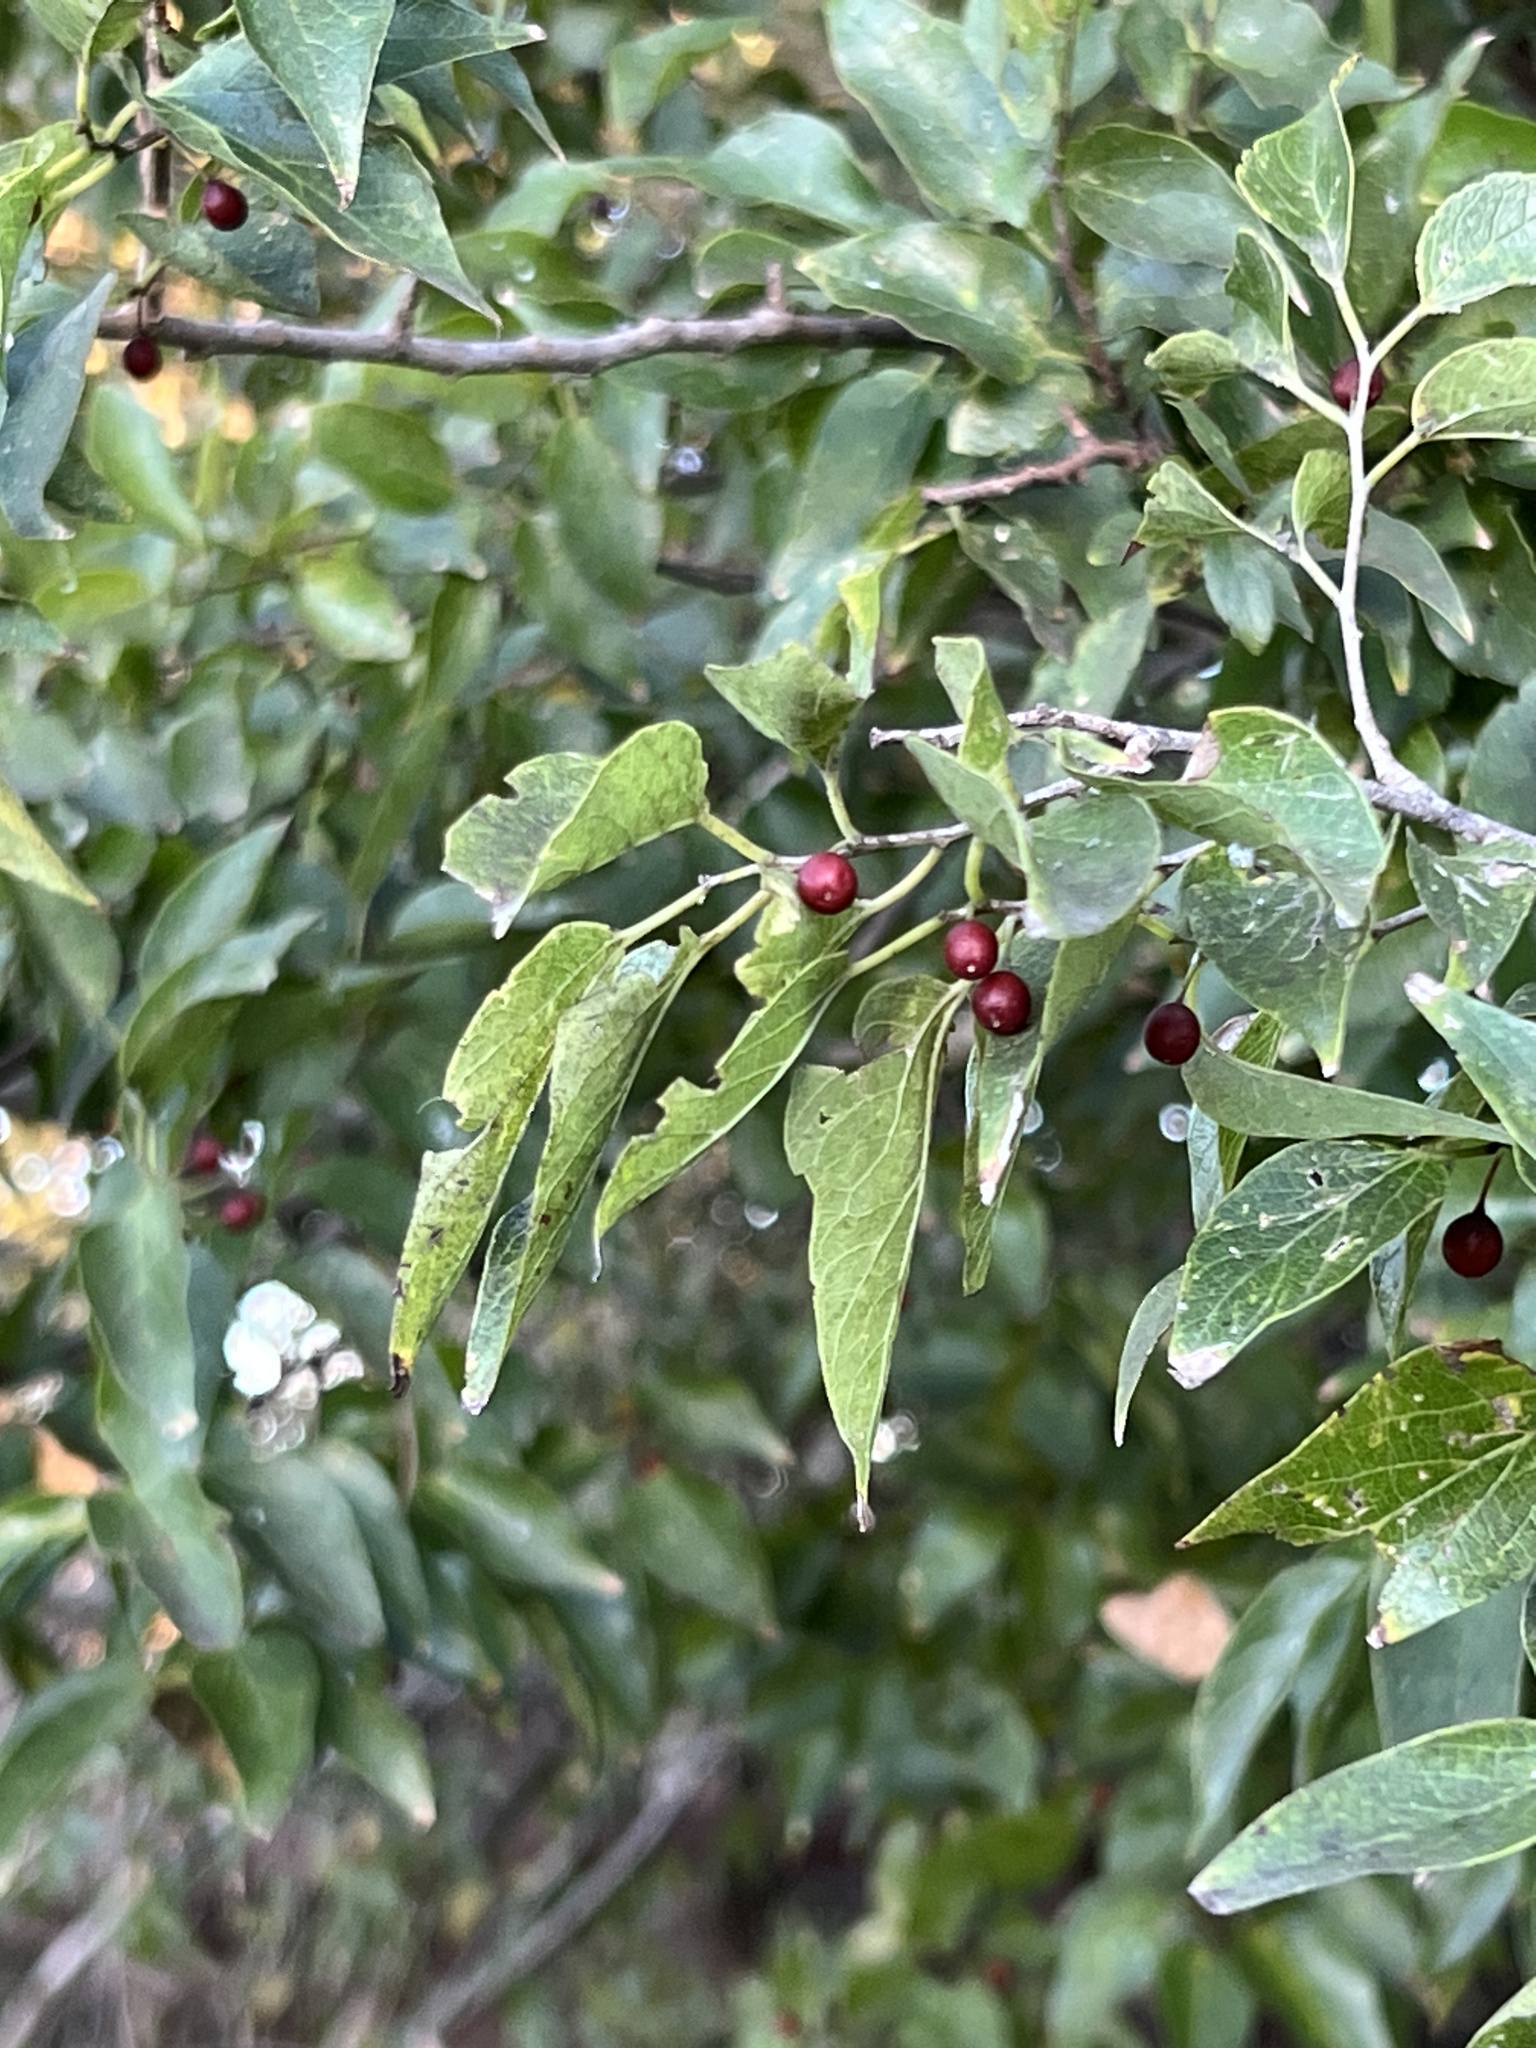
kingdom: Plantae
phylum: Tracheophyta
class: Magnoliopsida
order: Rosales
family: Cannabaceae
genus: Celtis
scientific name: Celtis laevigata
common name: Sugarberry
